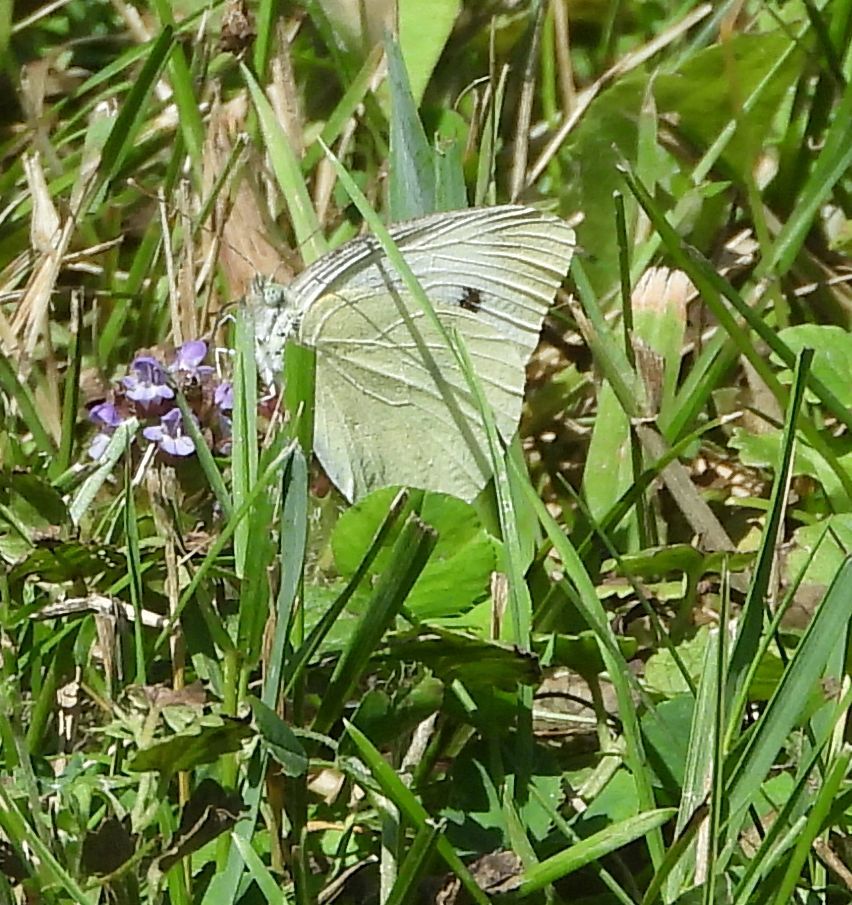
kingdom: Animalia
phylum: Arthropoda
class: Insecta
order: Lepidoptera
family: Pieridae
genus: Pieris
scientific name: Pieris rapae
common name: Small white
